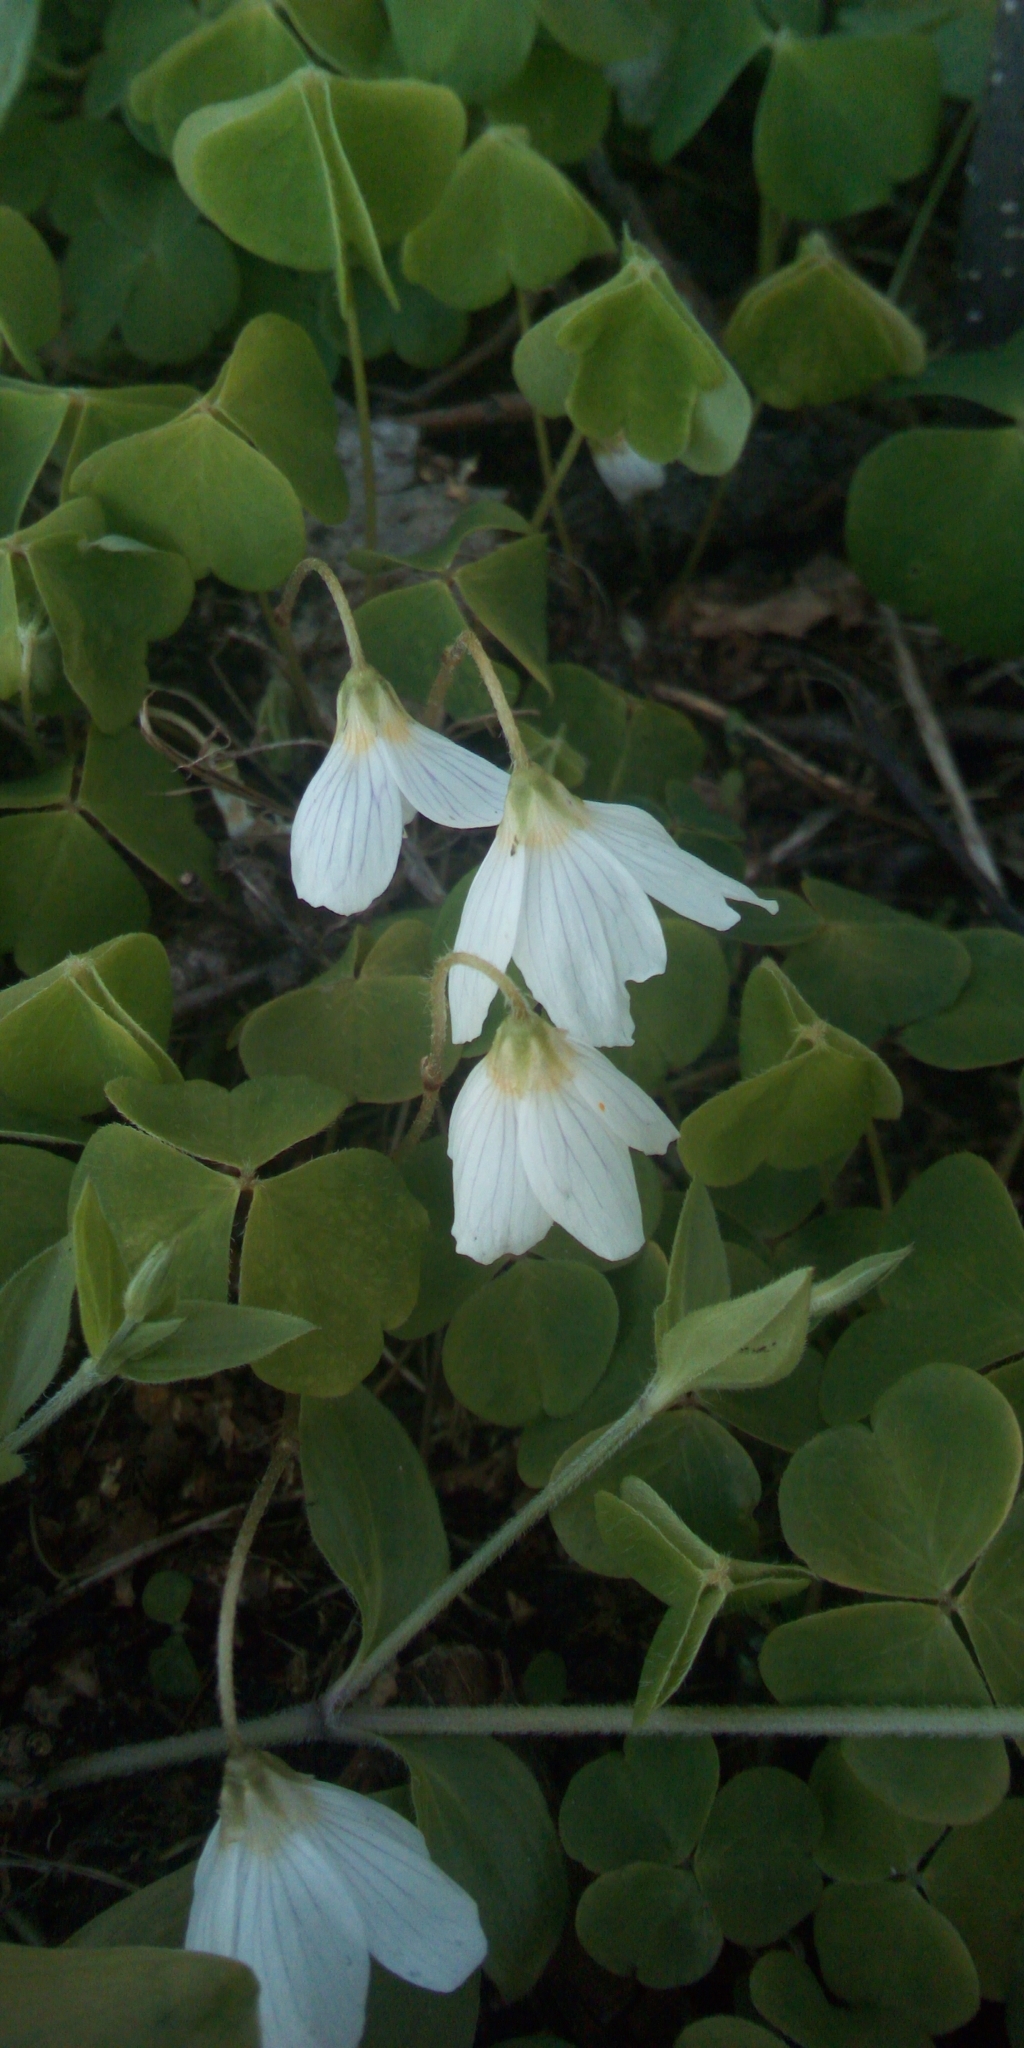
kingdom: Plantae
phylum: Tracheophyta
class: Magnoliopsida
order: Oxalidales
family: Oxalidaceae
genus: Oxalis
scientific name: Oxalis acetosella
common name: Wood-sorrel
